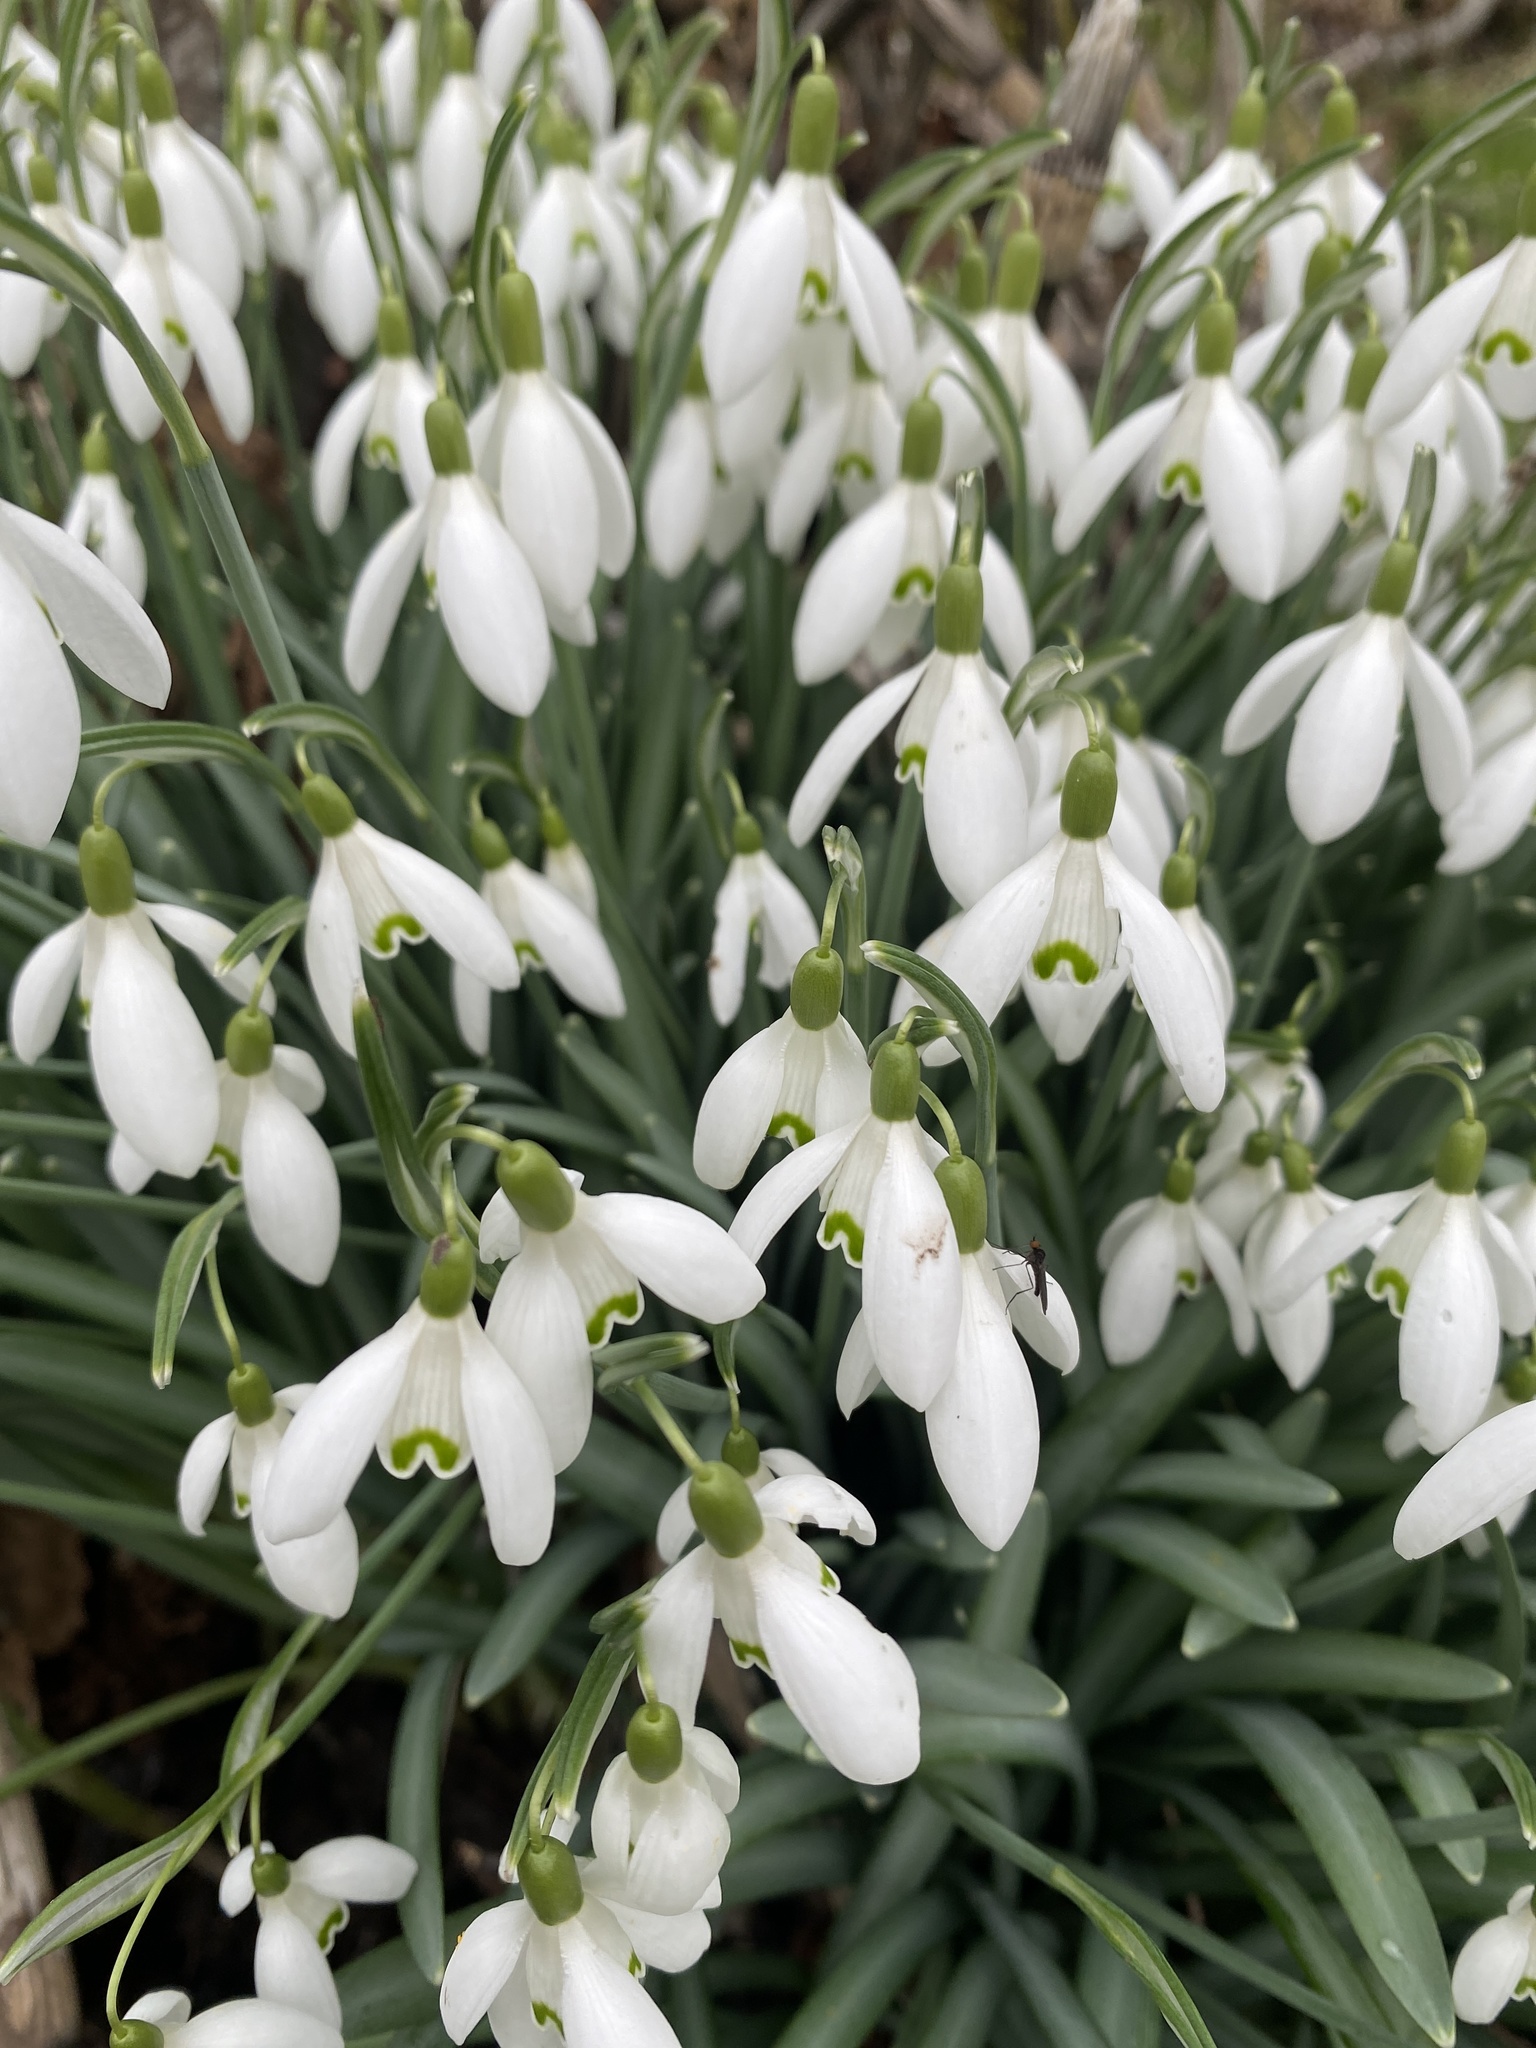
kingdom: Plantae
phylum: Tracheophyta
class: Liliopsida
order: Asparagales
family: Amaryllidaceae
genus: Galanthus
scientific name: Galanthus nivalis
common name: Snowdrop
